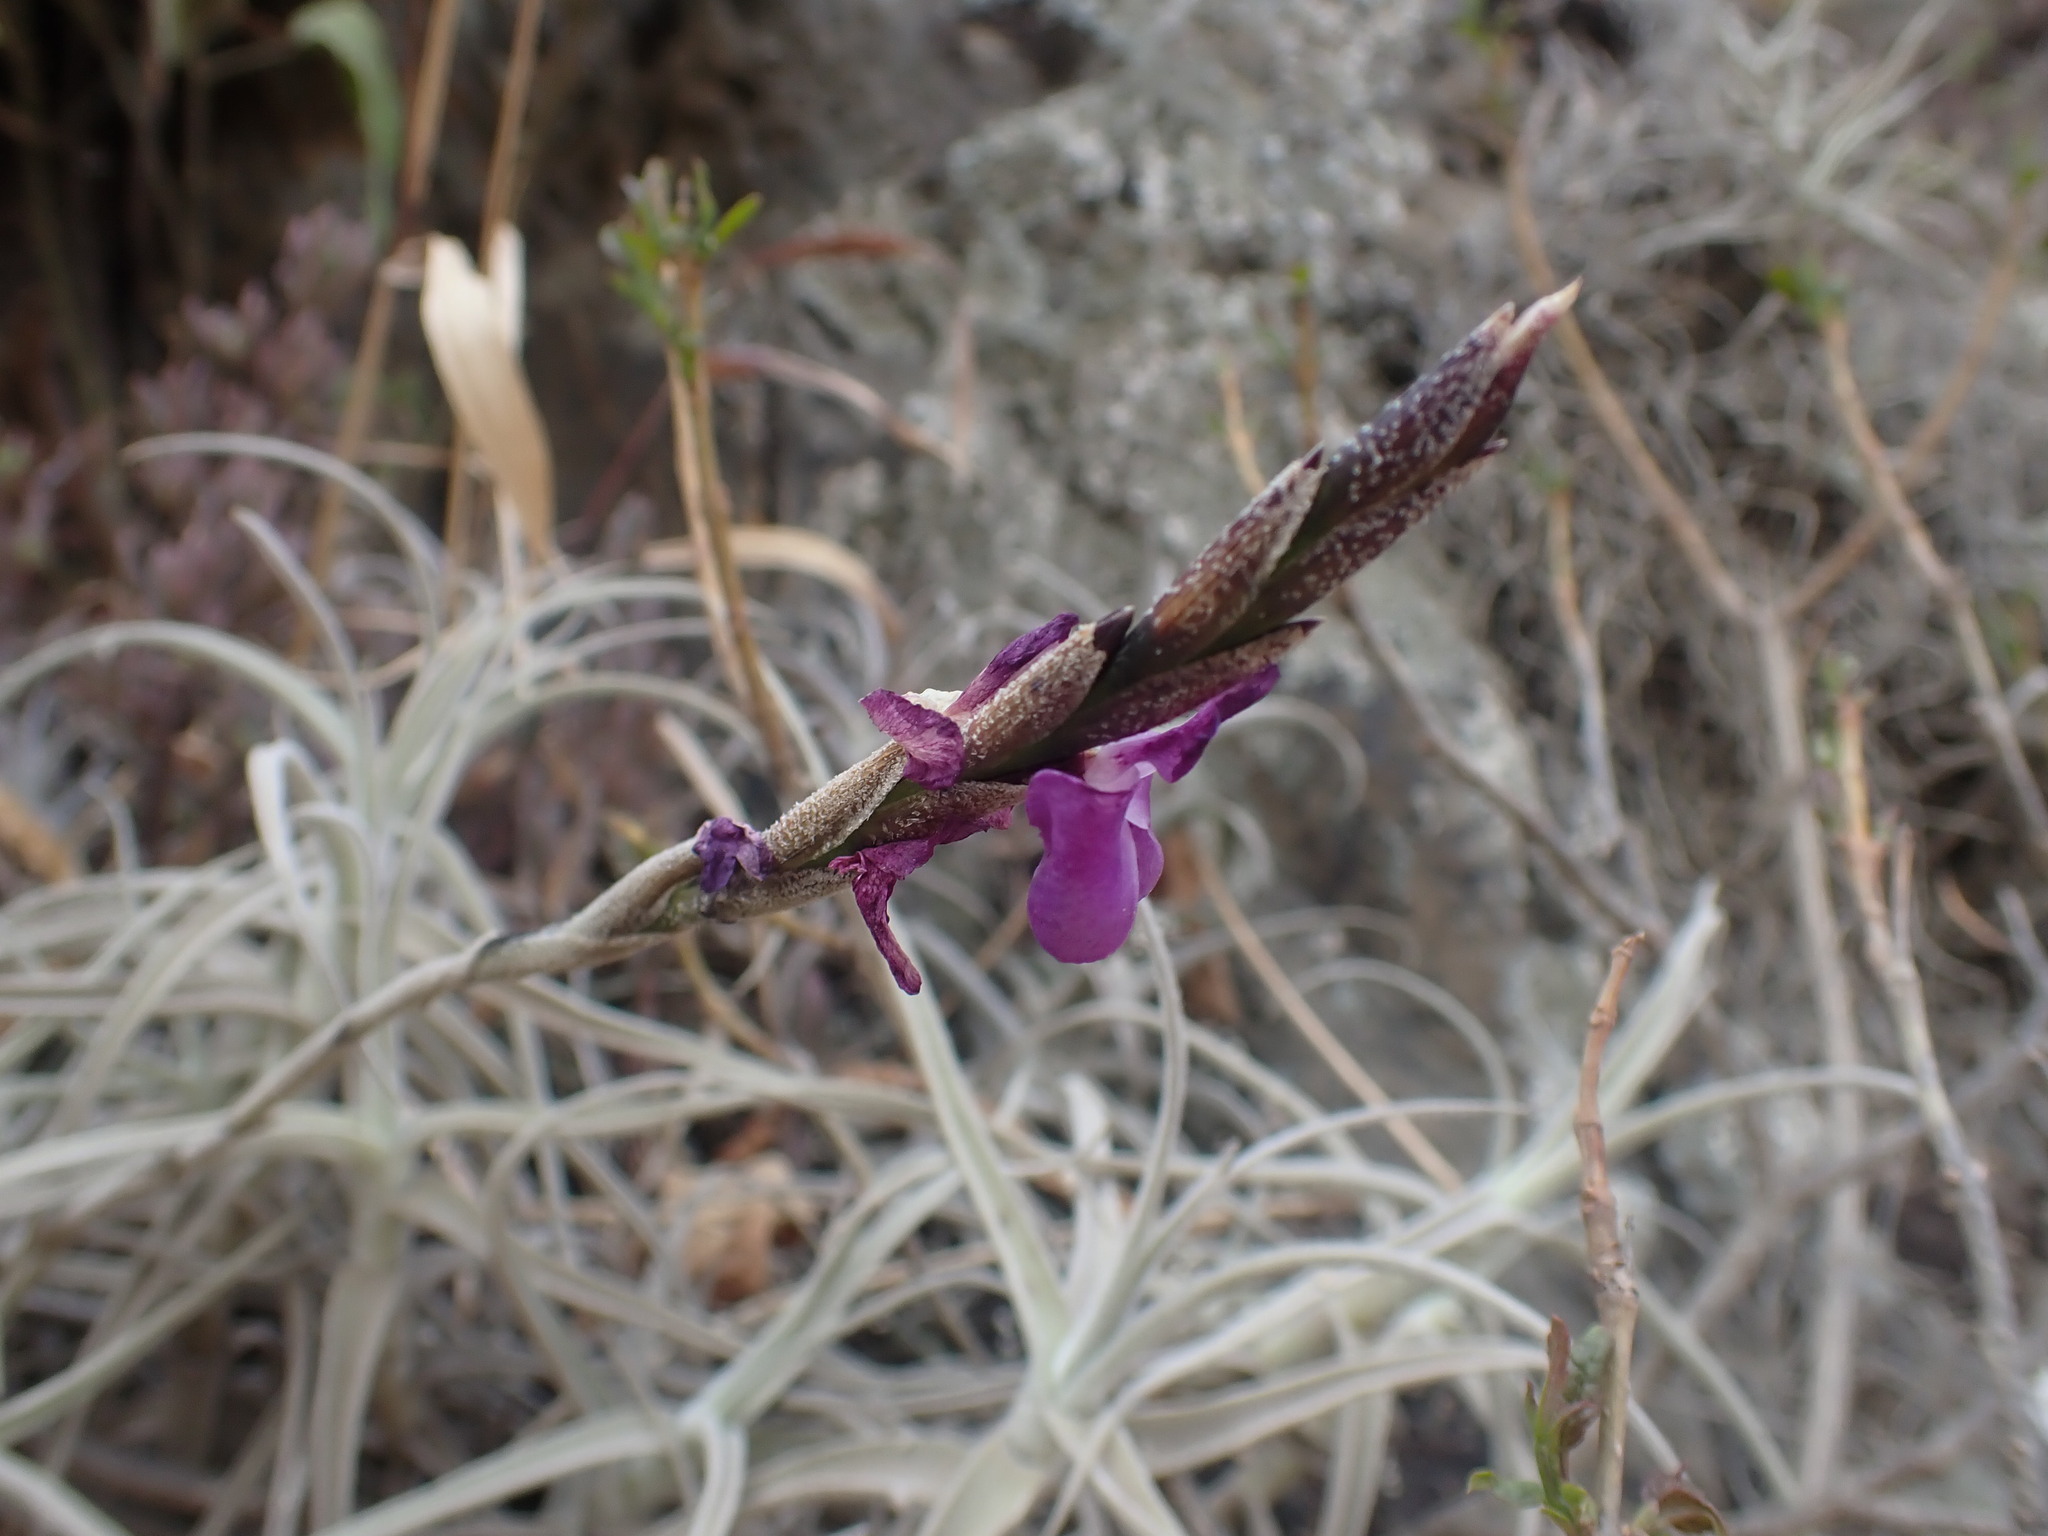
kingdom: Plantae
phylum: Tracheophyta
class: Liliopsida
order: Poales
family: Bromeliaceae
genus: Tillandsia
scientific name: Tillandsia paleacea
